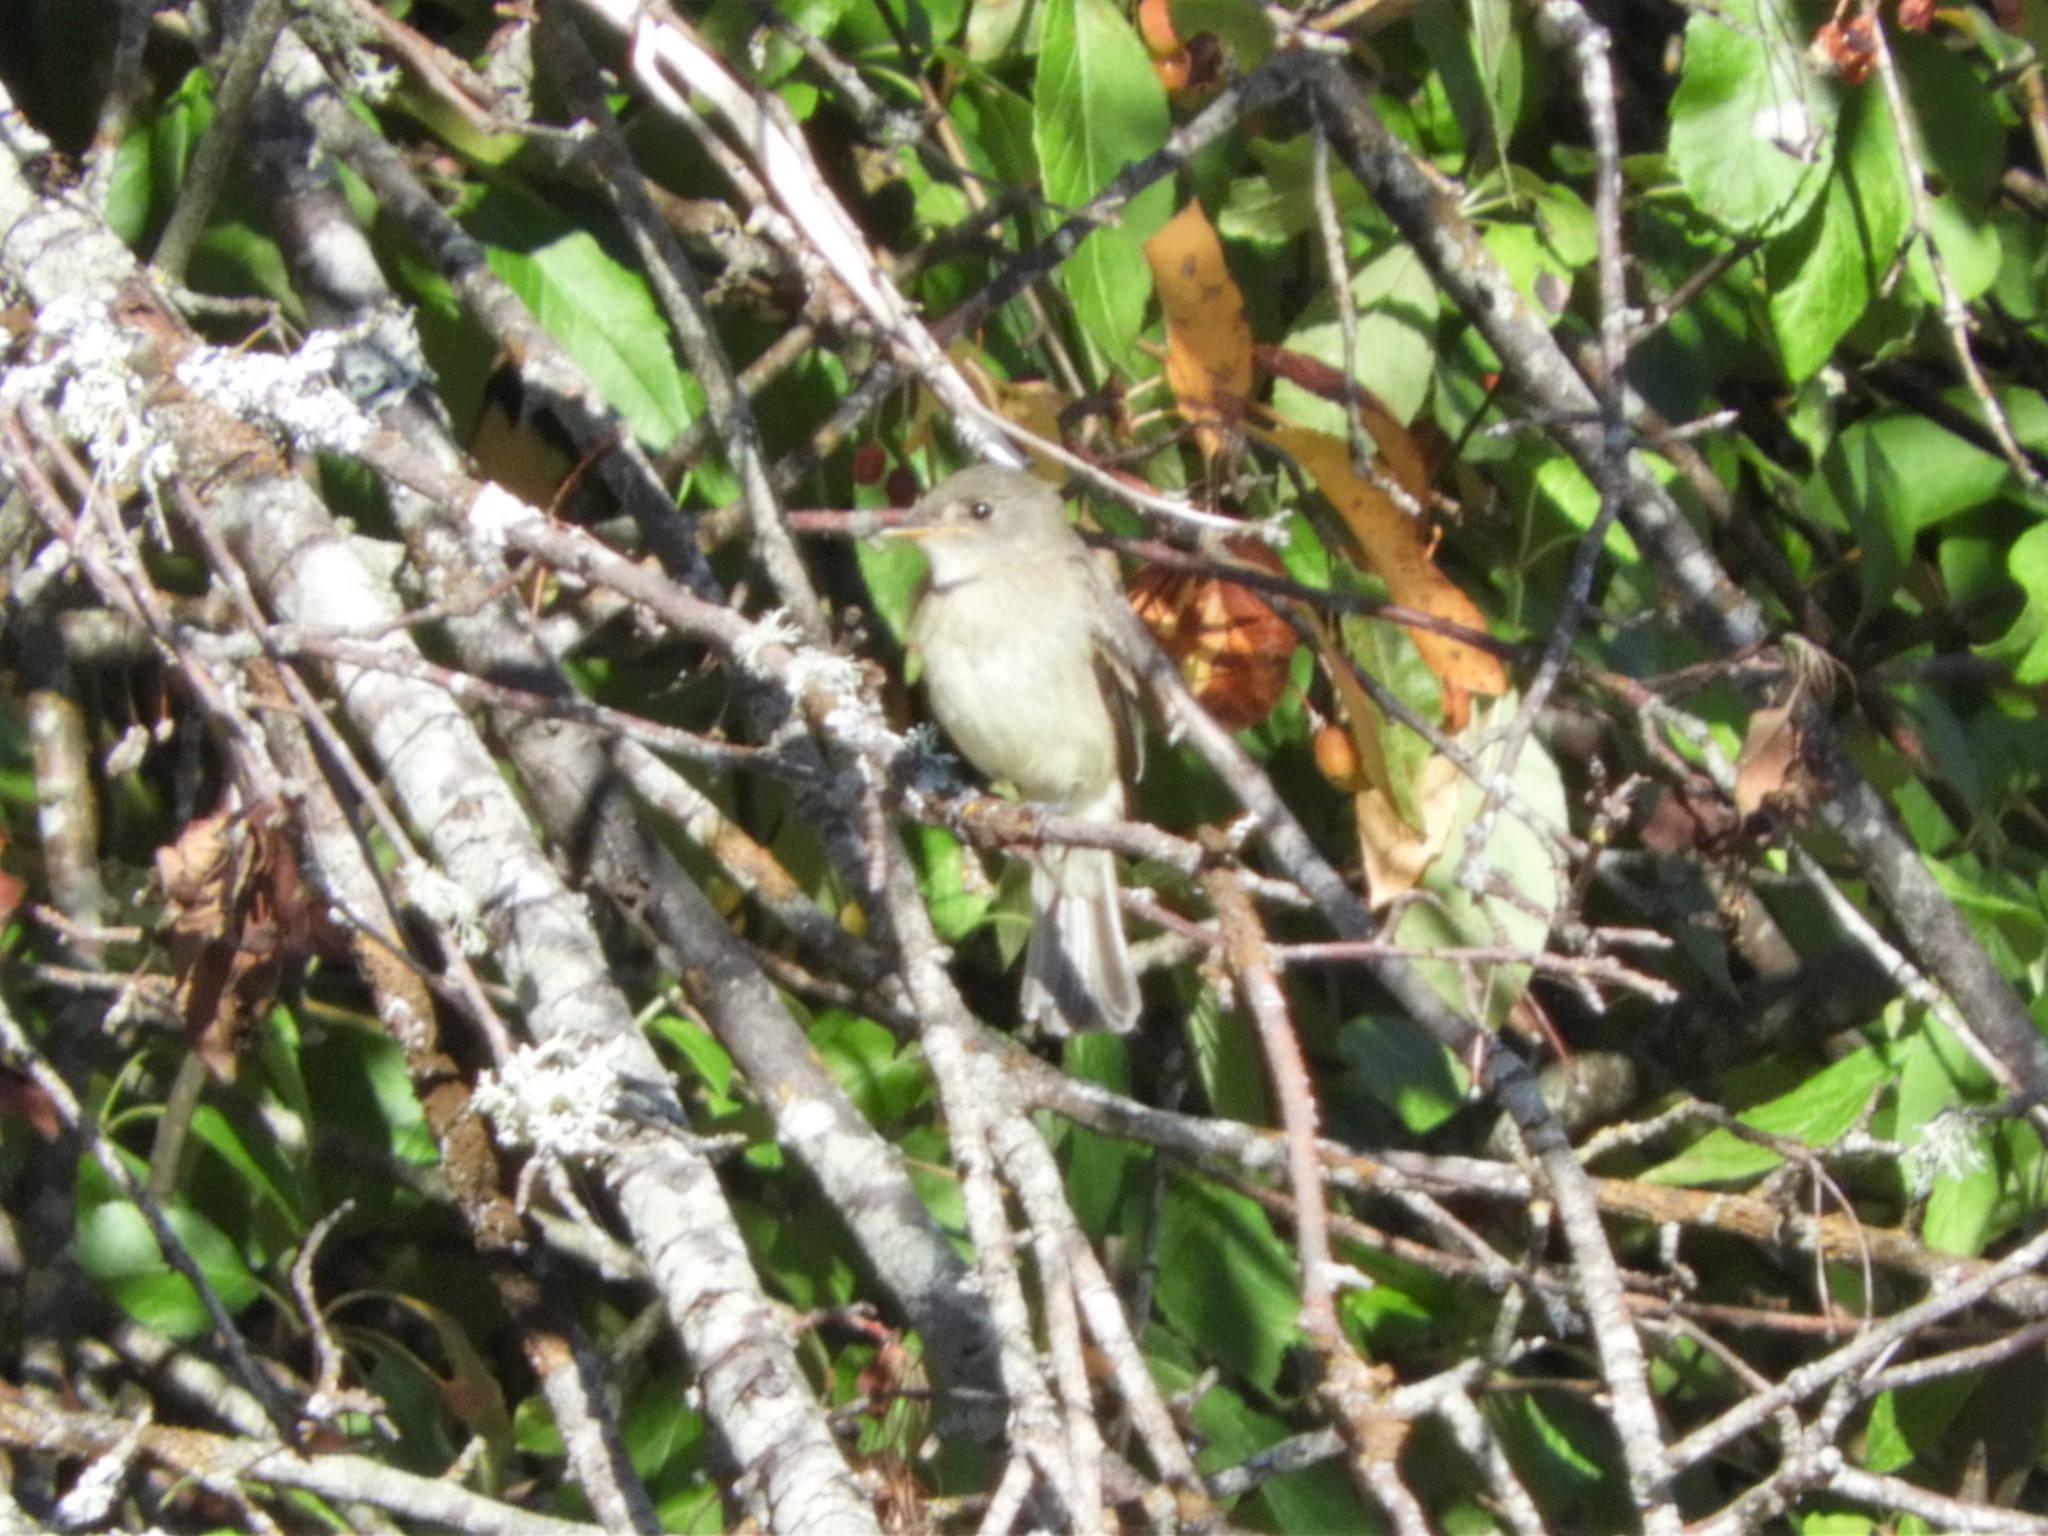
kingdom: Animalia
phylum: Chordata
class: Aves
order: Passeriformes
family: Tyrannidae
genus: Empidonax
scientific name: Empidonax traillii
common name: Willow flycatcher
